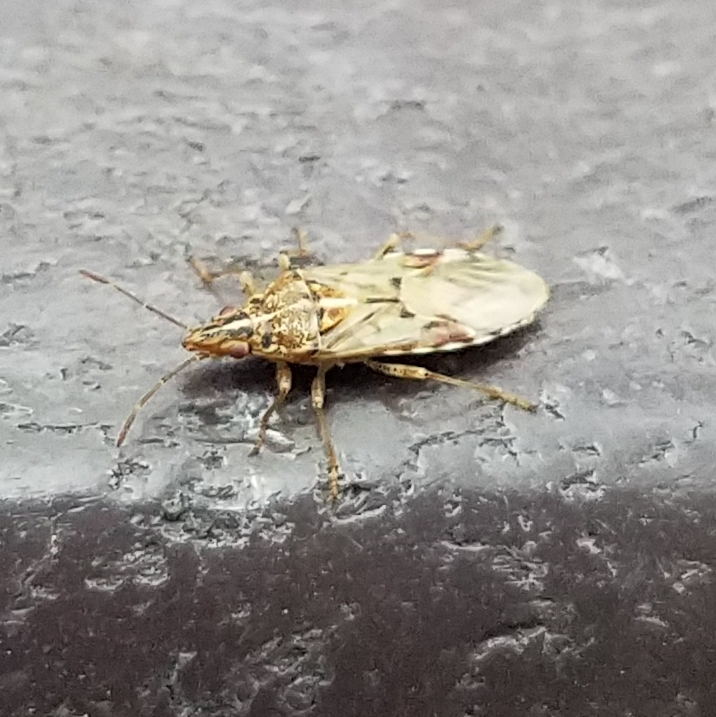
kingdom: Animalia
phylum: Arthropoda
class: Insecta
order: Hemiptera
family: Lygaeidae
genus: Belonochilus
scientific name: Belonochilus numenius
